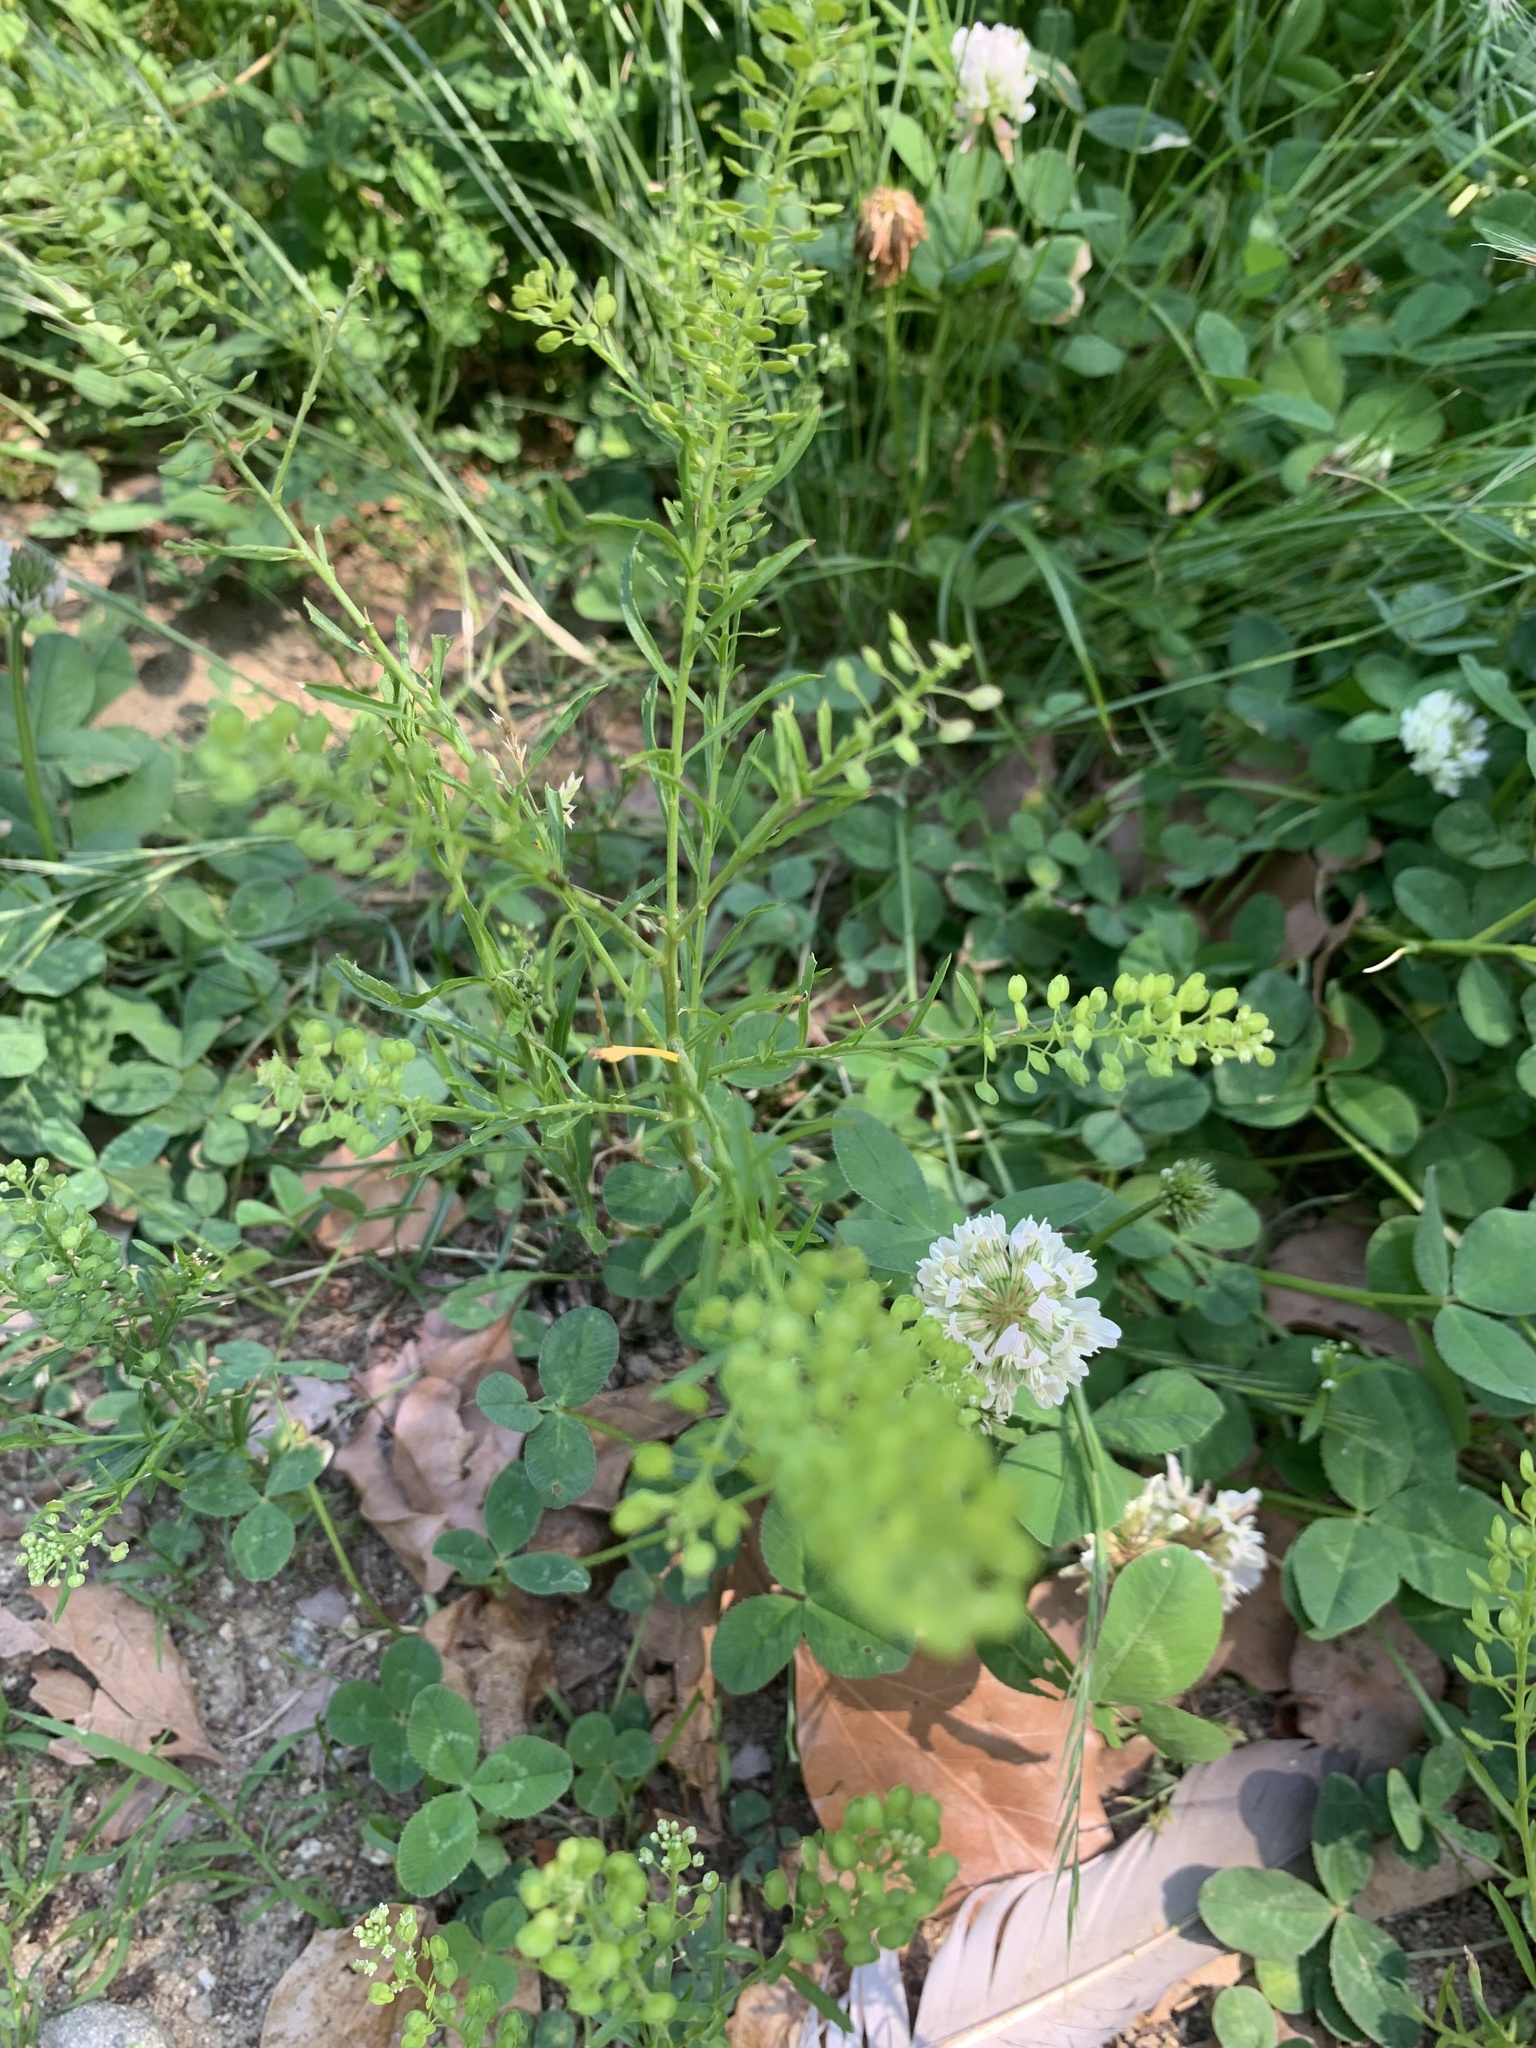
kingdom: Plantae
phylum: Tracheophyta
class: Magnoliopsida
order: Brassicales
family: Brassicaceae
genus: Lepidium
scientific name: Lepidium virginicum
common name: Least pepperwort
